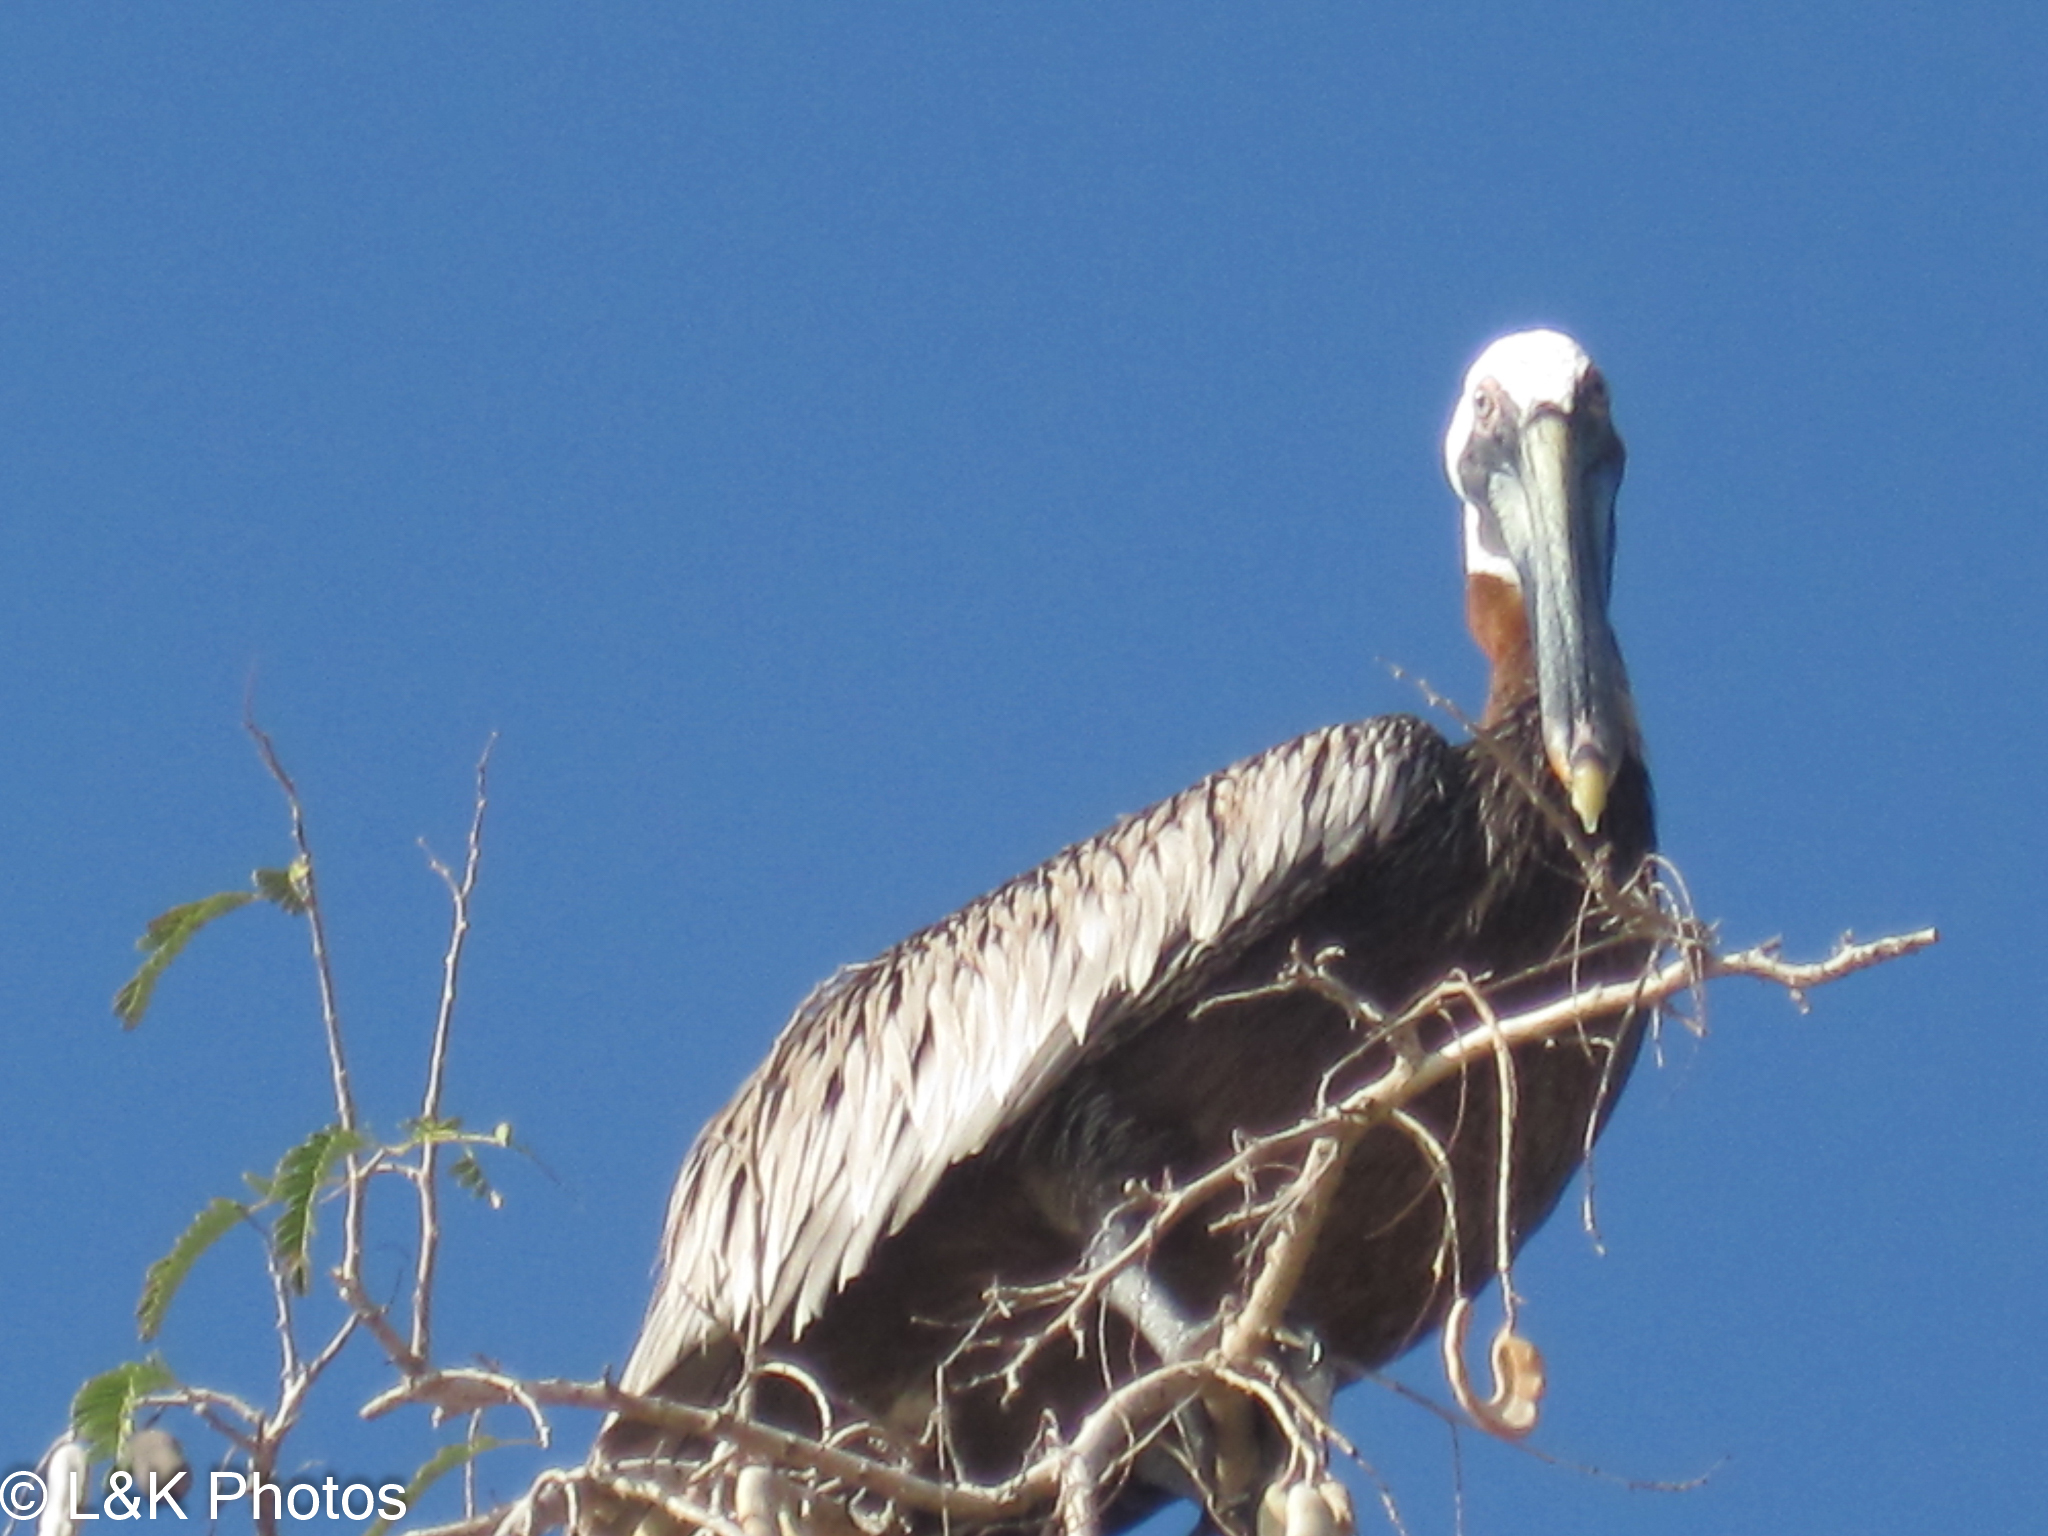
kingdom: Animalia
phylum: Chordata
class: Aves
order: Pelecaniformes
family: Pelecanidae
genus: Pelecanus
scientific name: Pelecanus occidentalis
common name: Brown pelican
